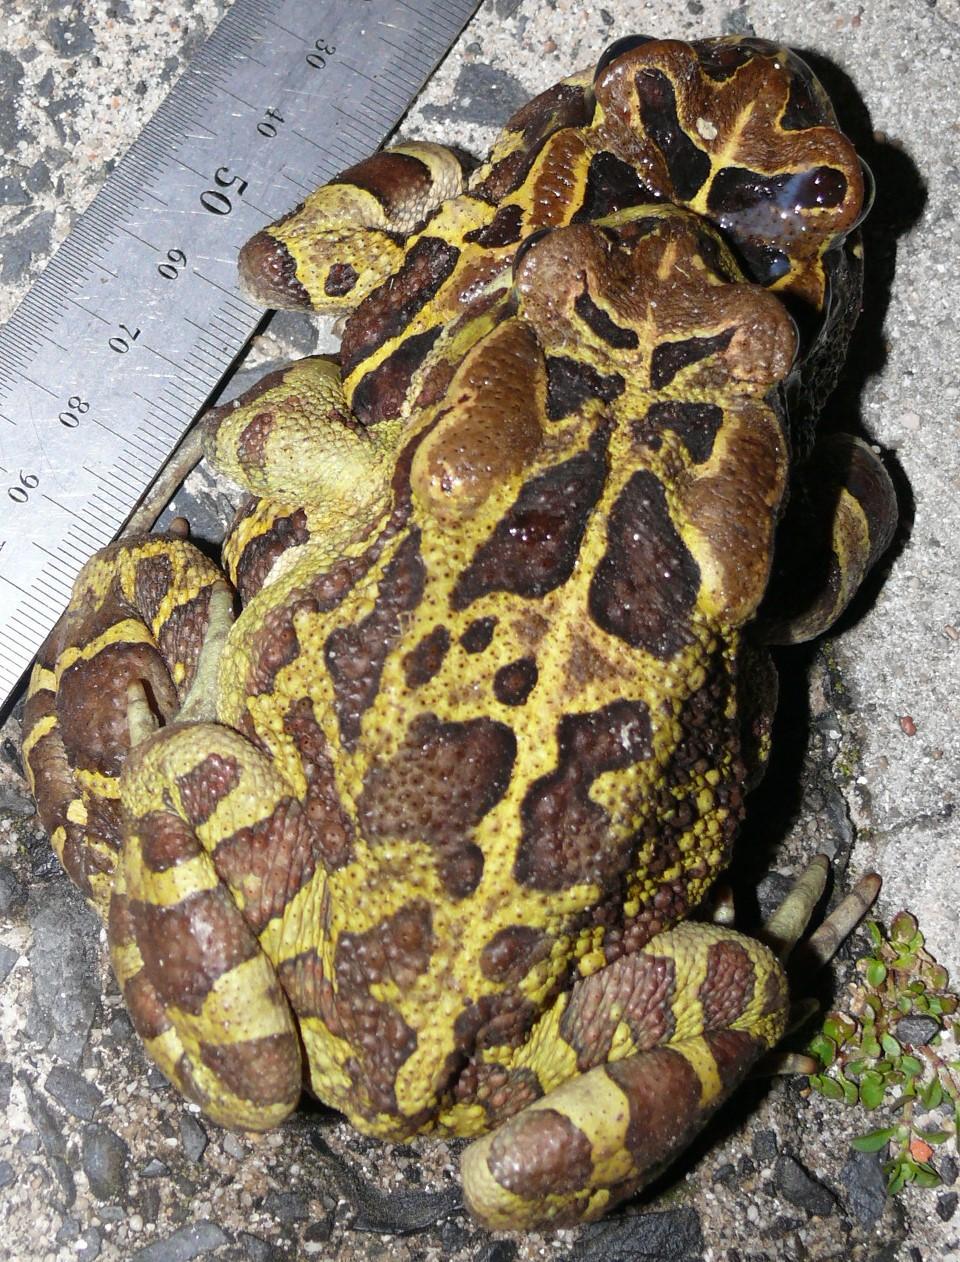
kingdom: Animalia
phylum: Chordata
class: Amphibia
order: Anura
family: Bufonidae
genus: Sclerophrys
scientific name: Sclerophrys pantherina
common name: Panther toad
